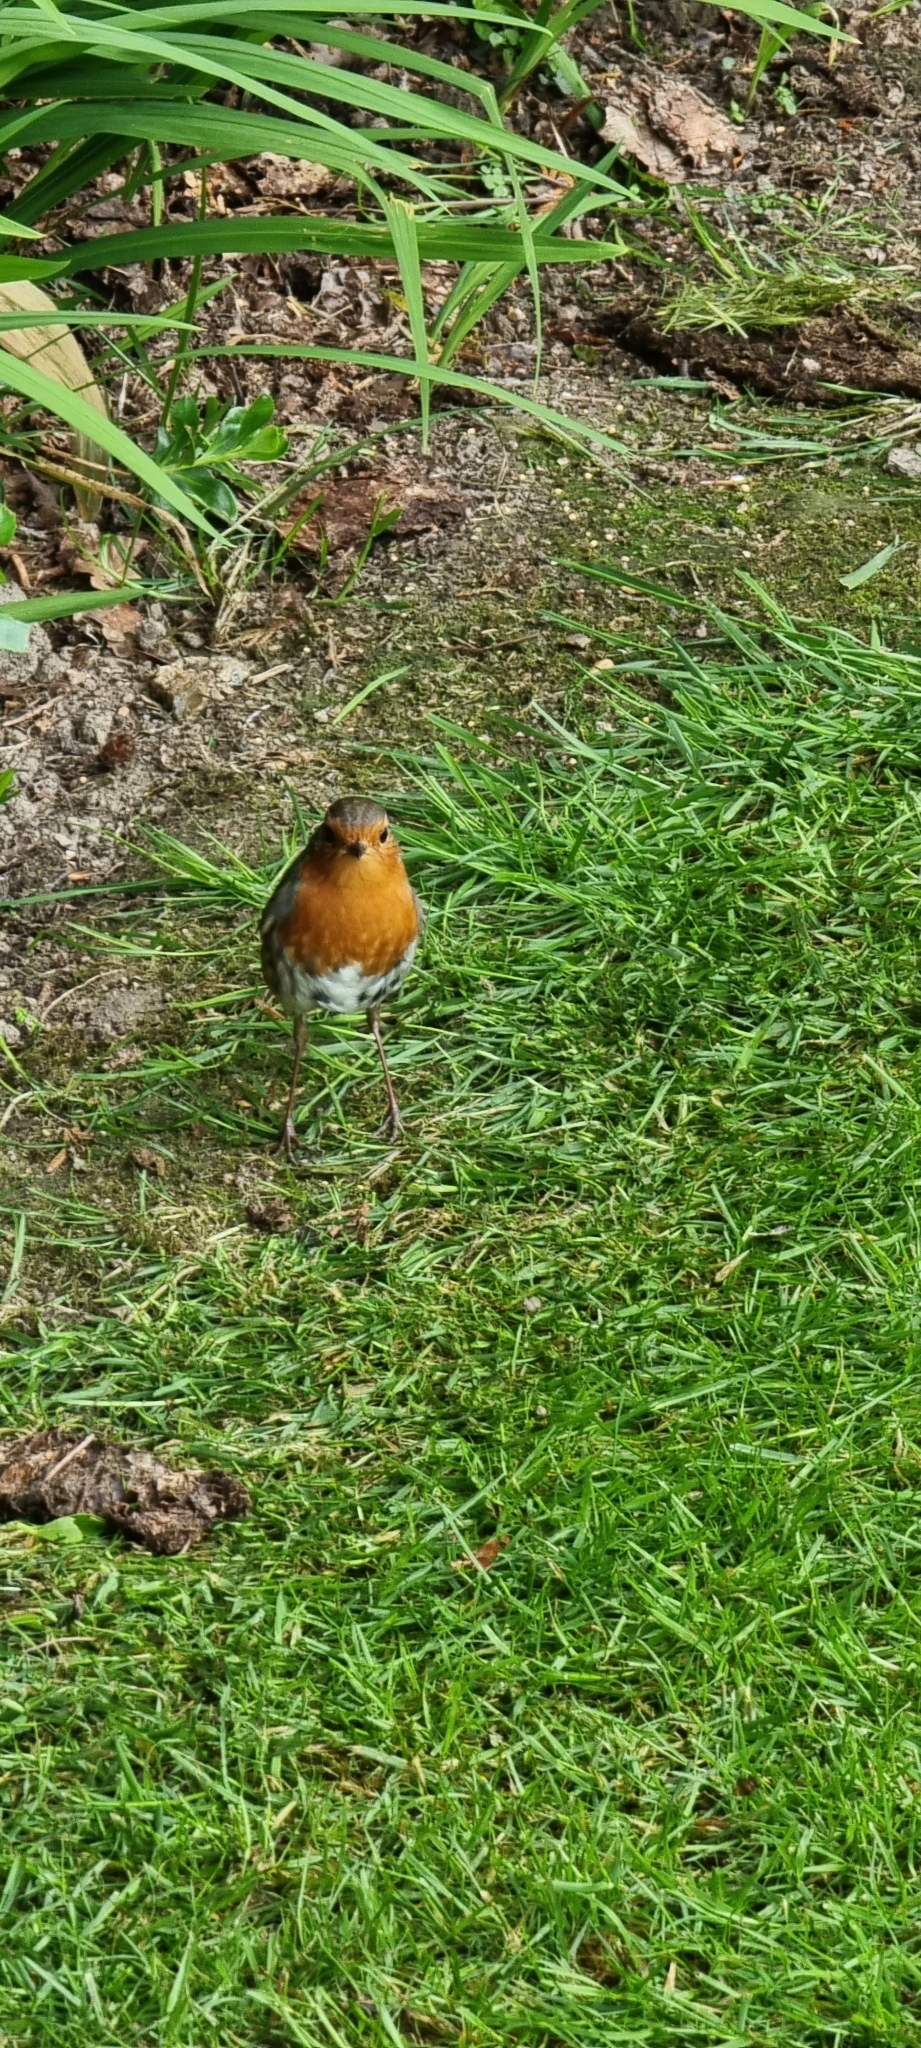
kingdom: Animalia
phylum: Chordata
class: Aves
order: Passeriformes
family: Muscicapidae
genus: Erithacus
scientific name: Erithacus rubecula
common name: European robin
